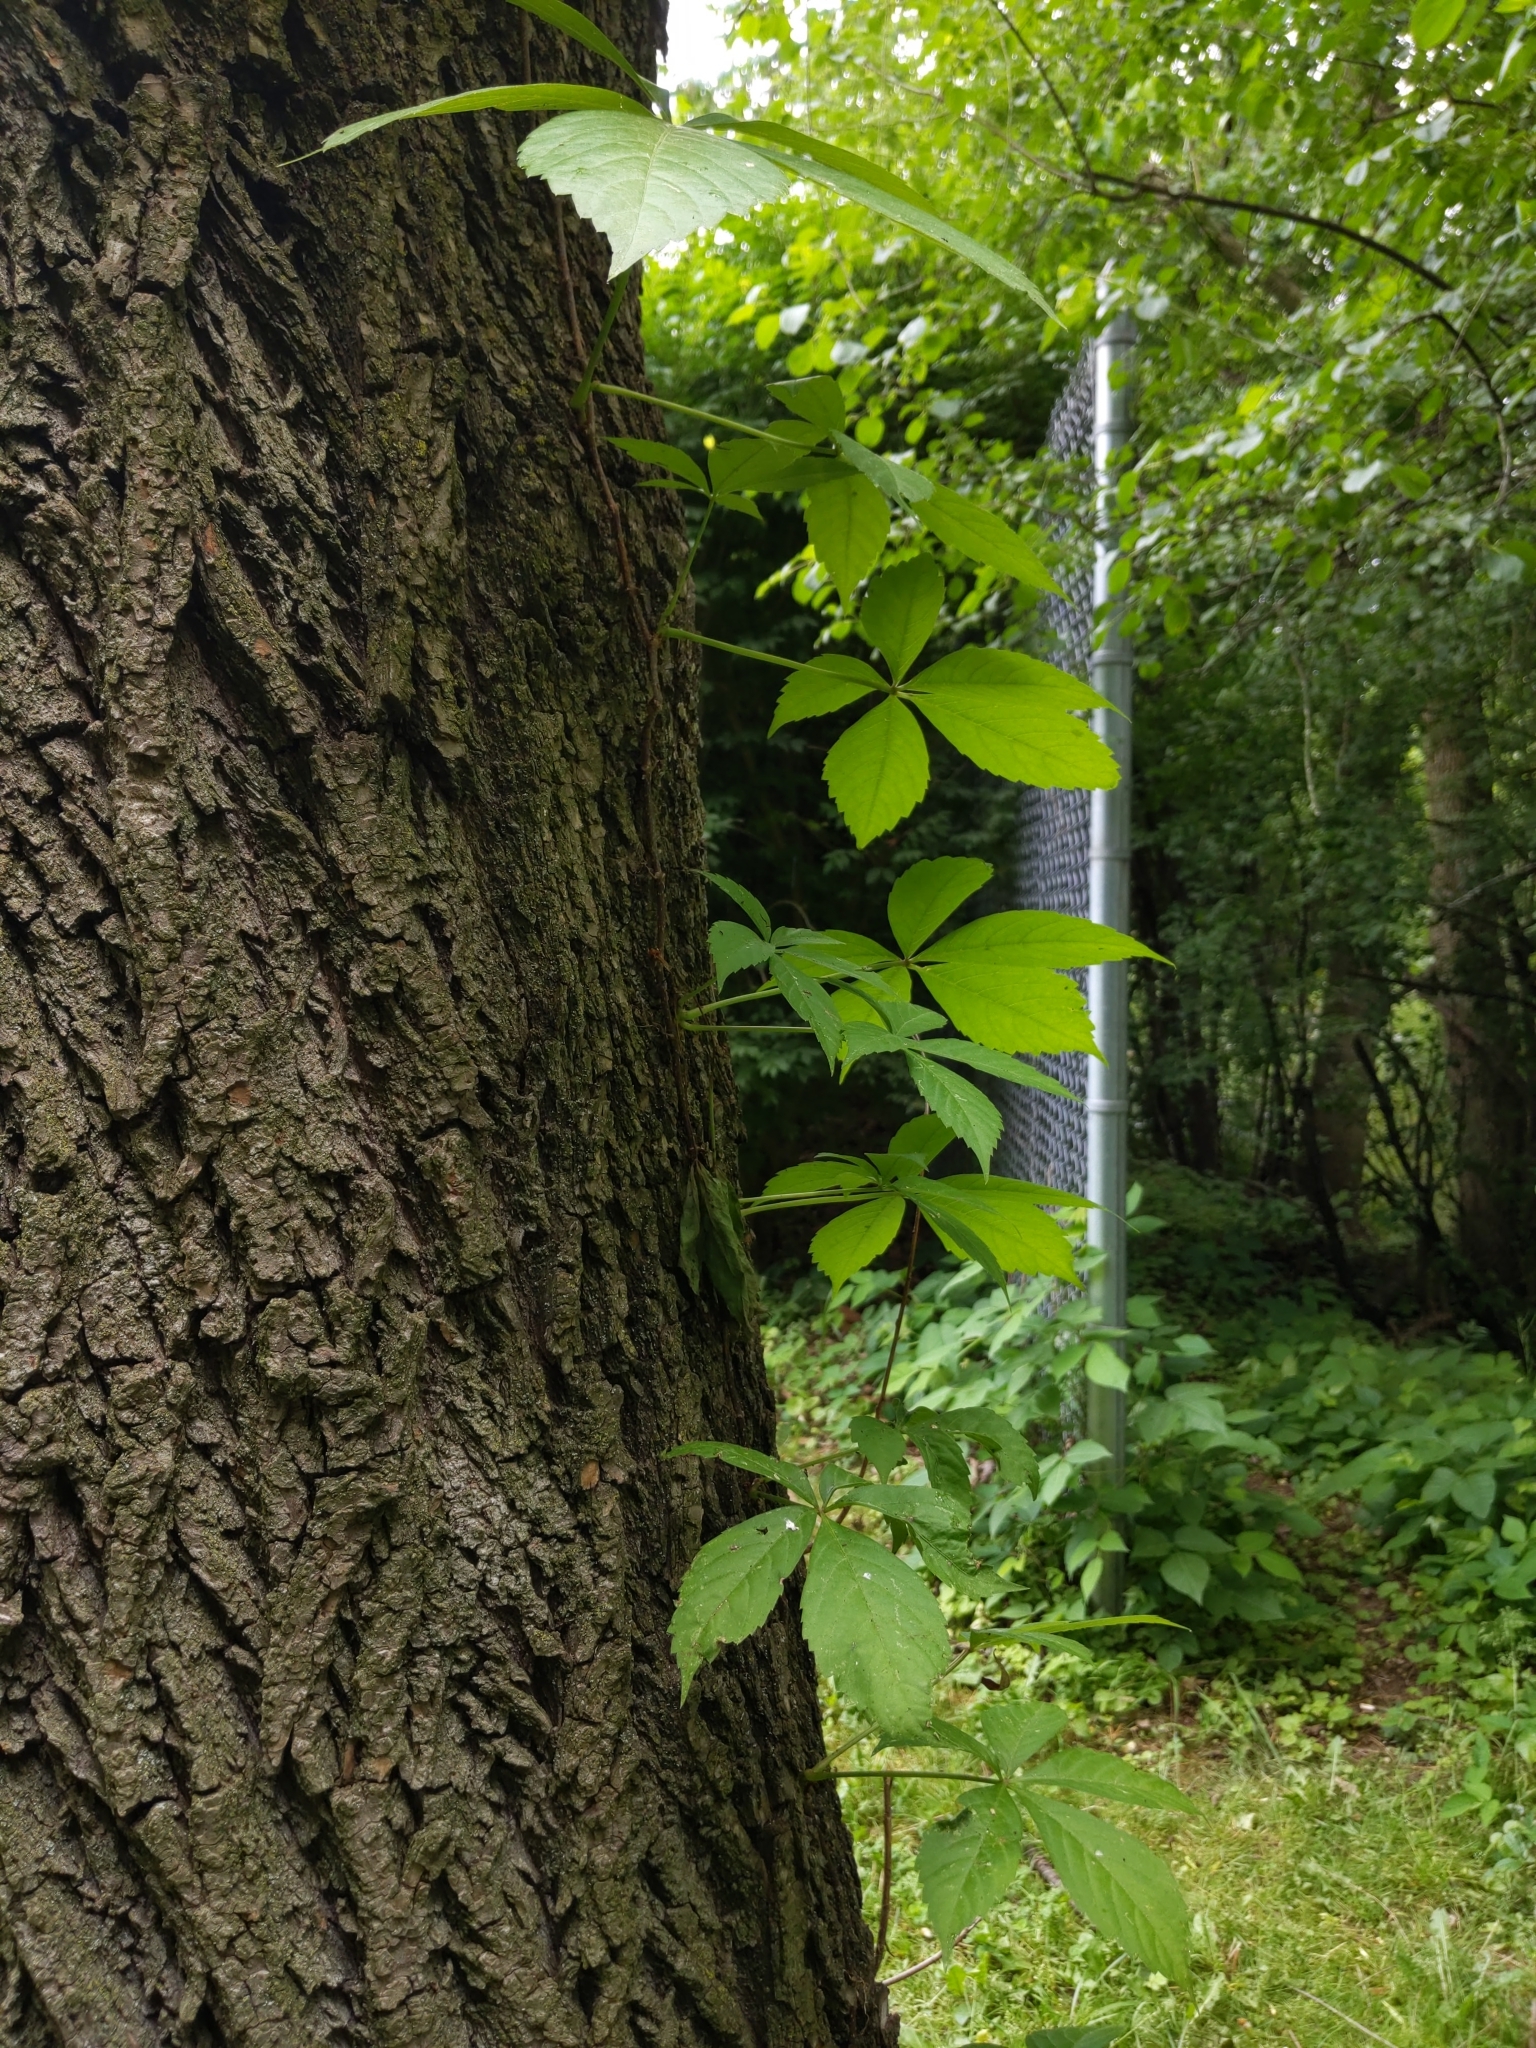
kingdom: Plantae
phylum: Tracheophyta
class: Magnoliopsida
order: Vitales
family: Vitaceae
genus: Parthenocissus
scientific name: Parthenocissus quinquefolia
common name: Virginia-creeper
